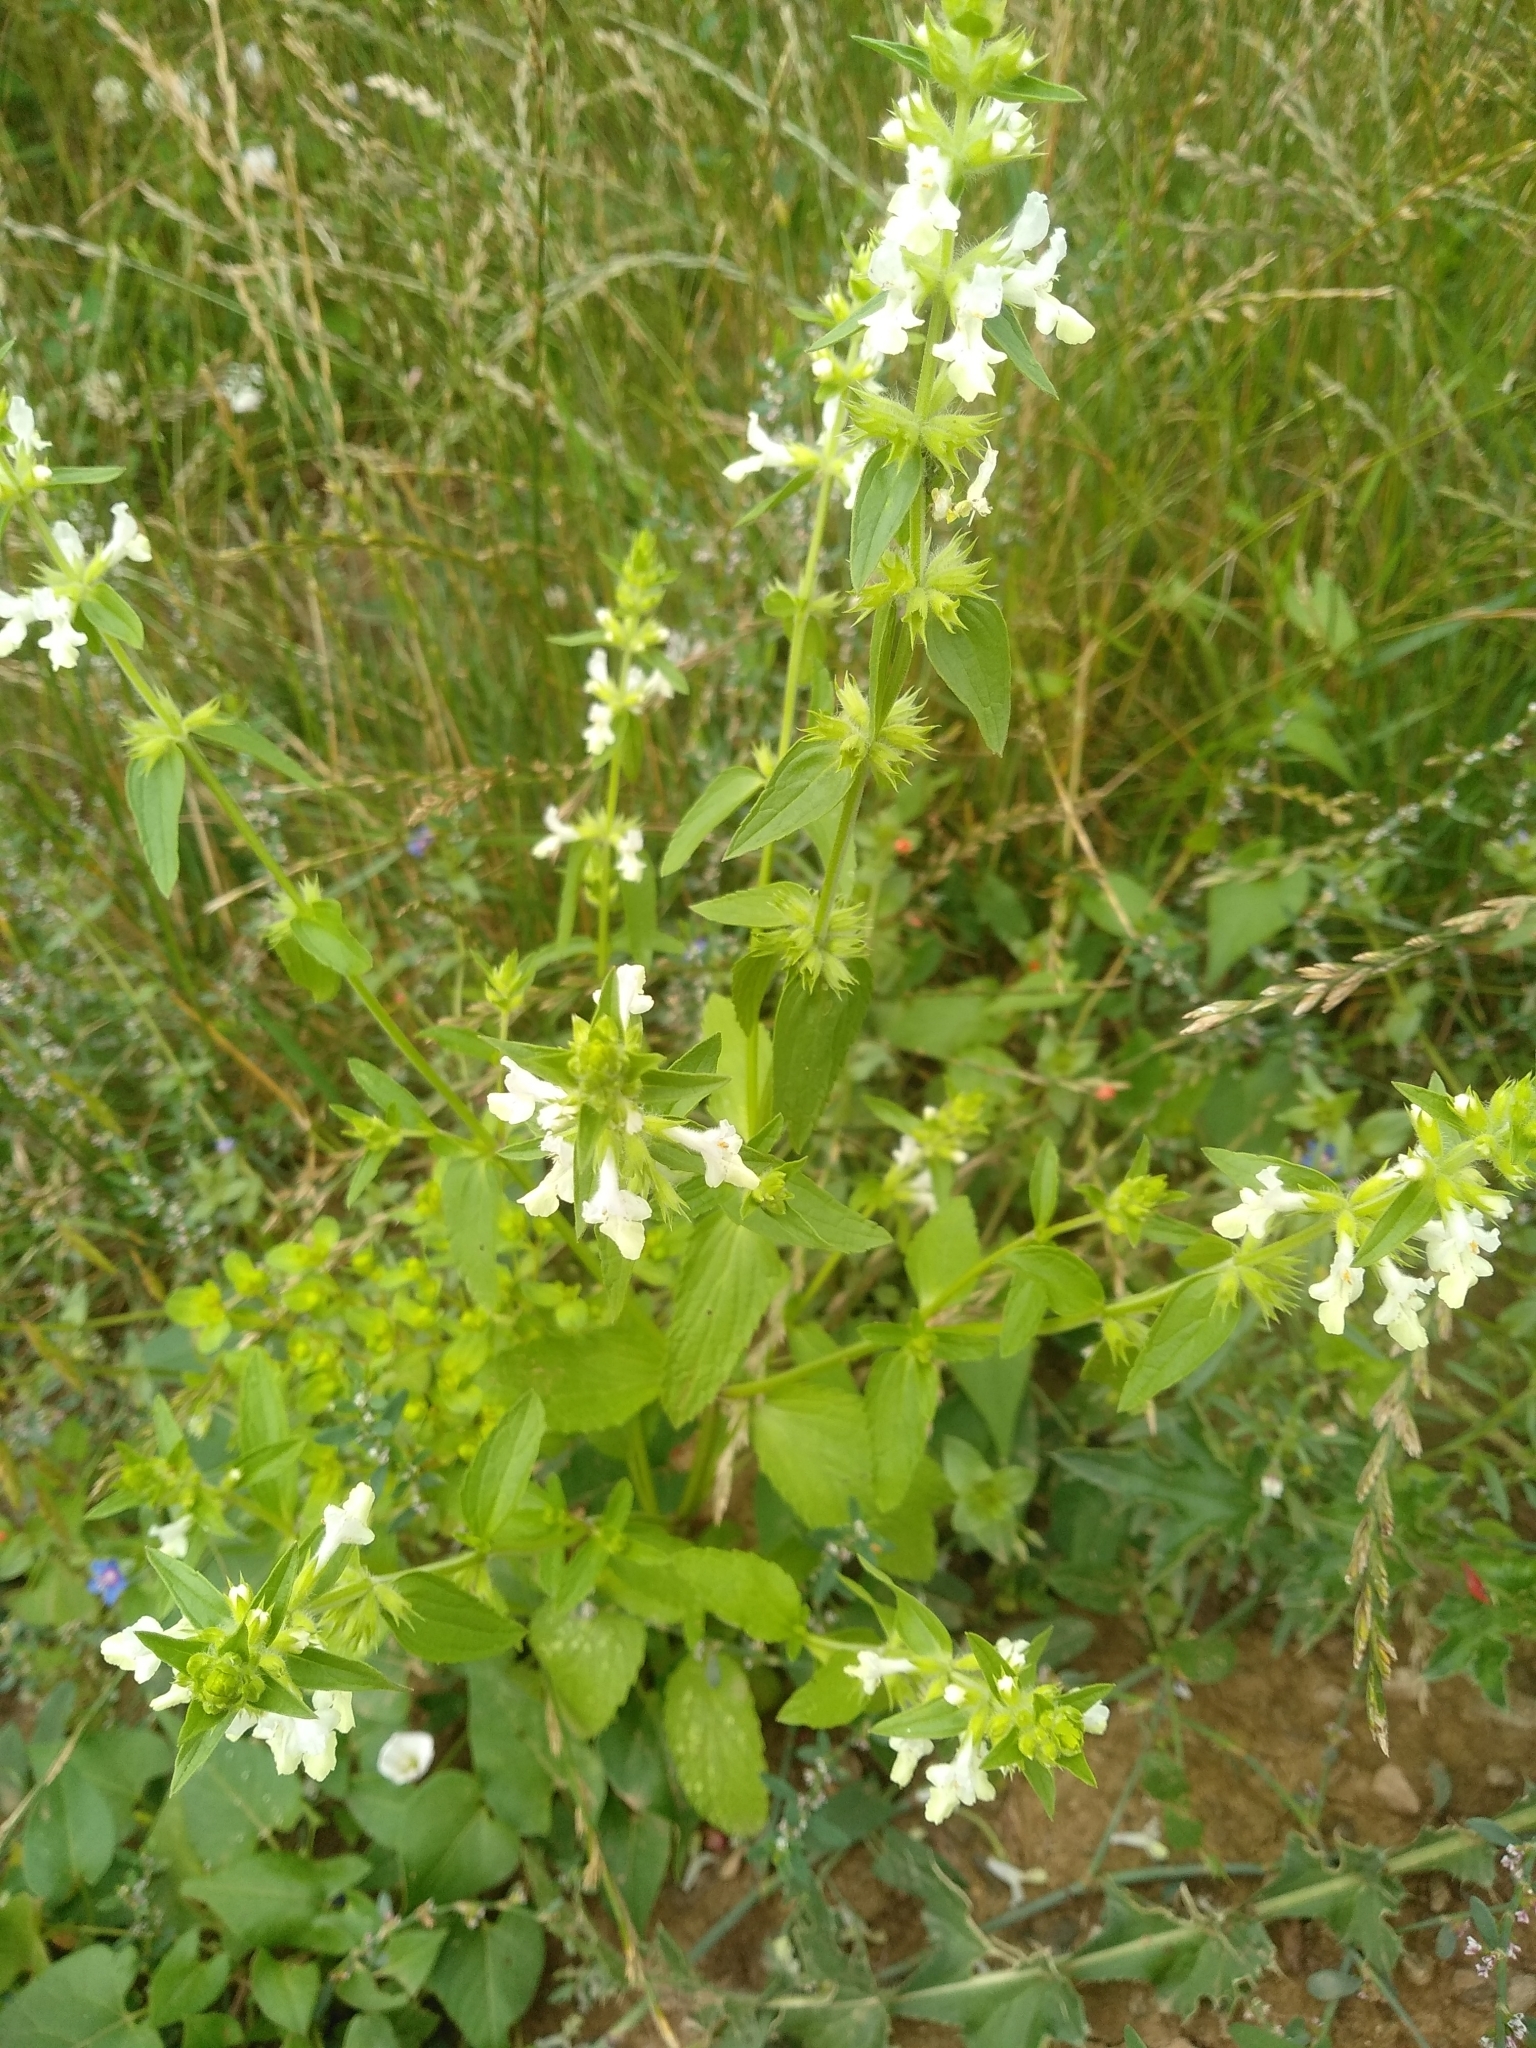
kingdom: Plantae
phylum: Tracheophyta
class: Magnoliopsida
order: Lamiales
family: Lamiaceae
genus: Stachys
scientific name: Stachys annua
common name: Annual yellow-woundwort
